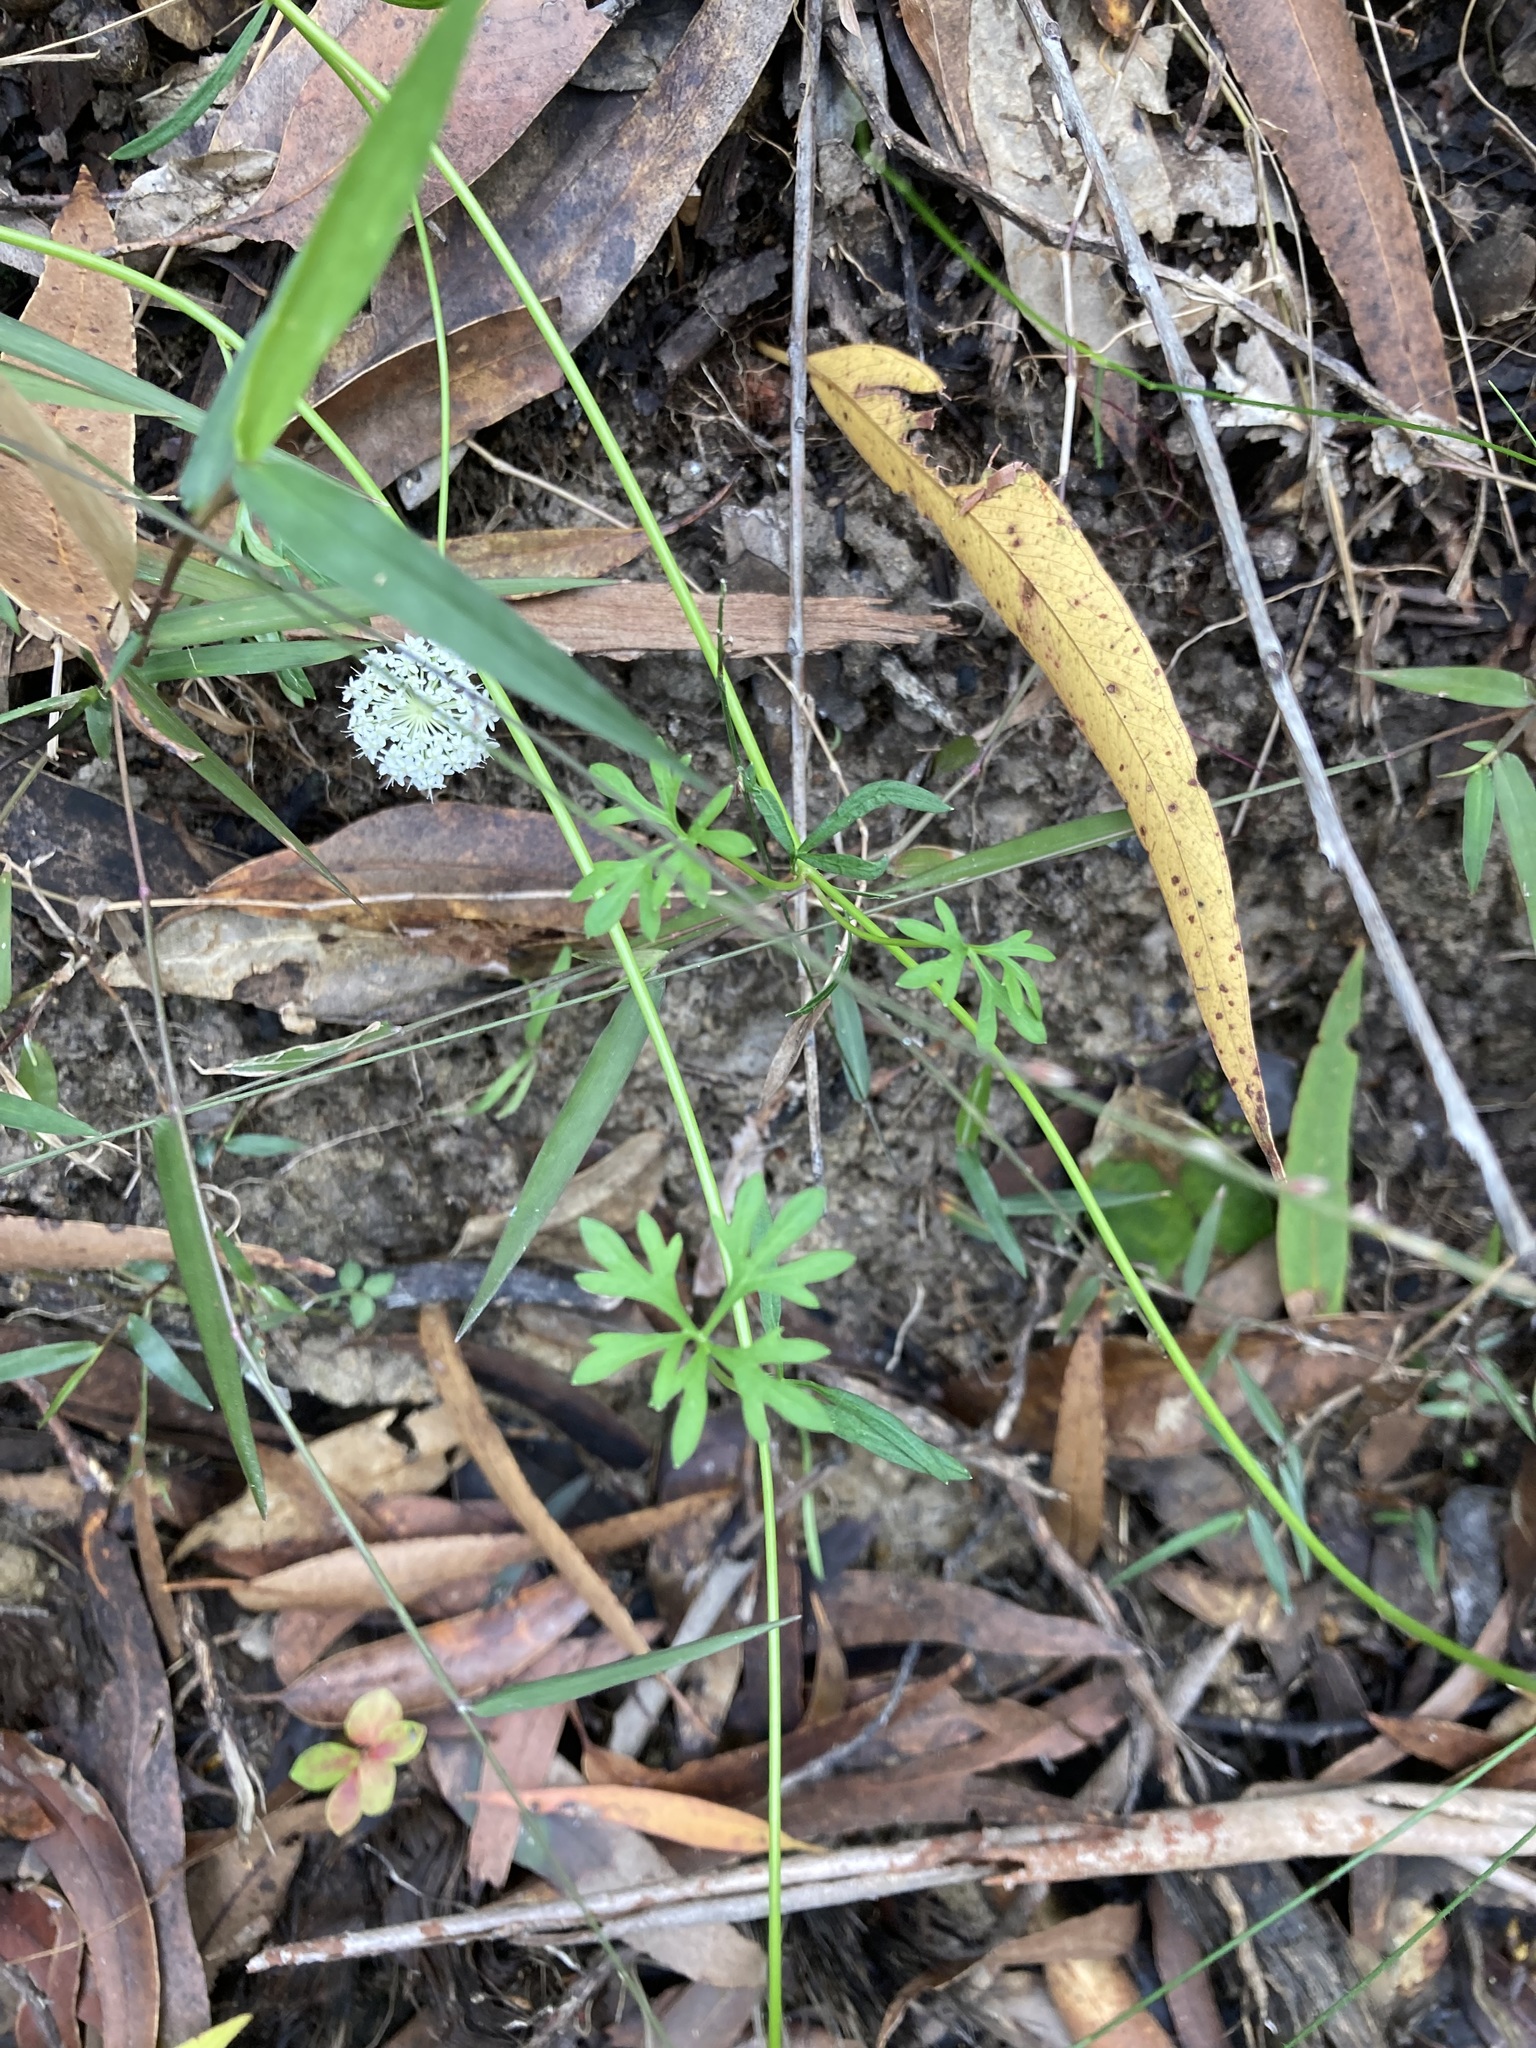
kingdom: Plantae
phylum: Tracheophyta
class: Magnoliopsida
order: Apiales
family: Araliaceae
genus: Trachymene
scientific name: Trachymene incisa
